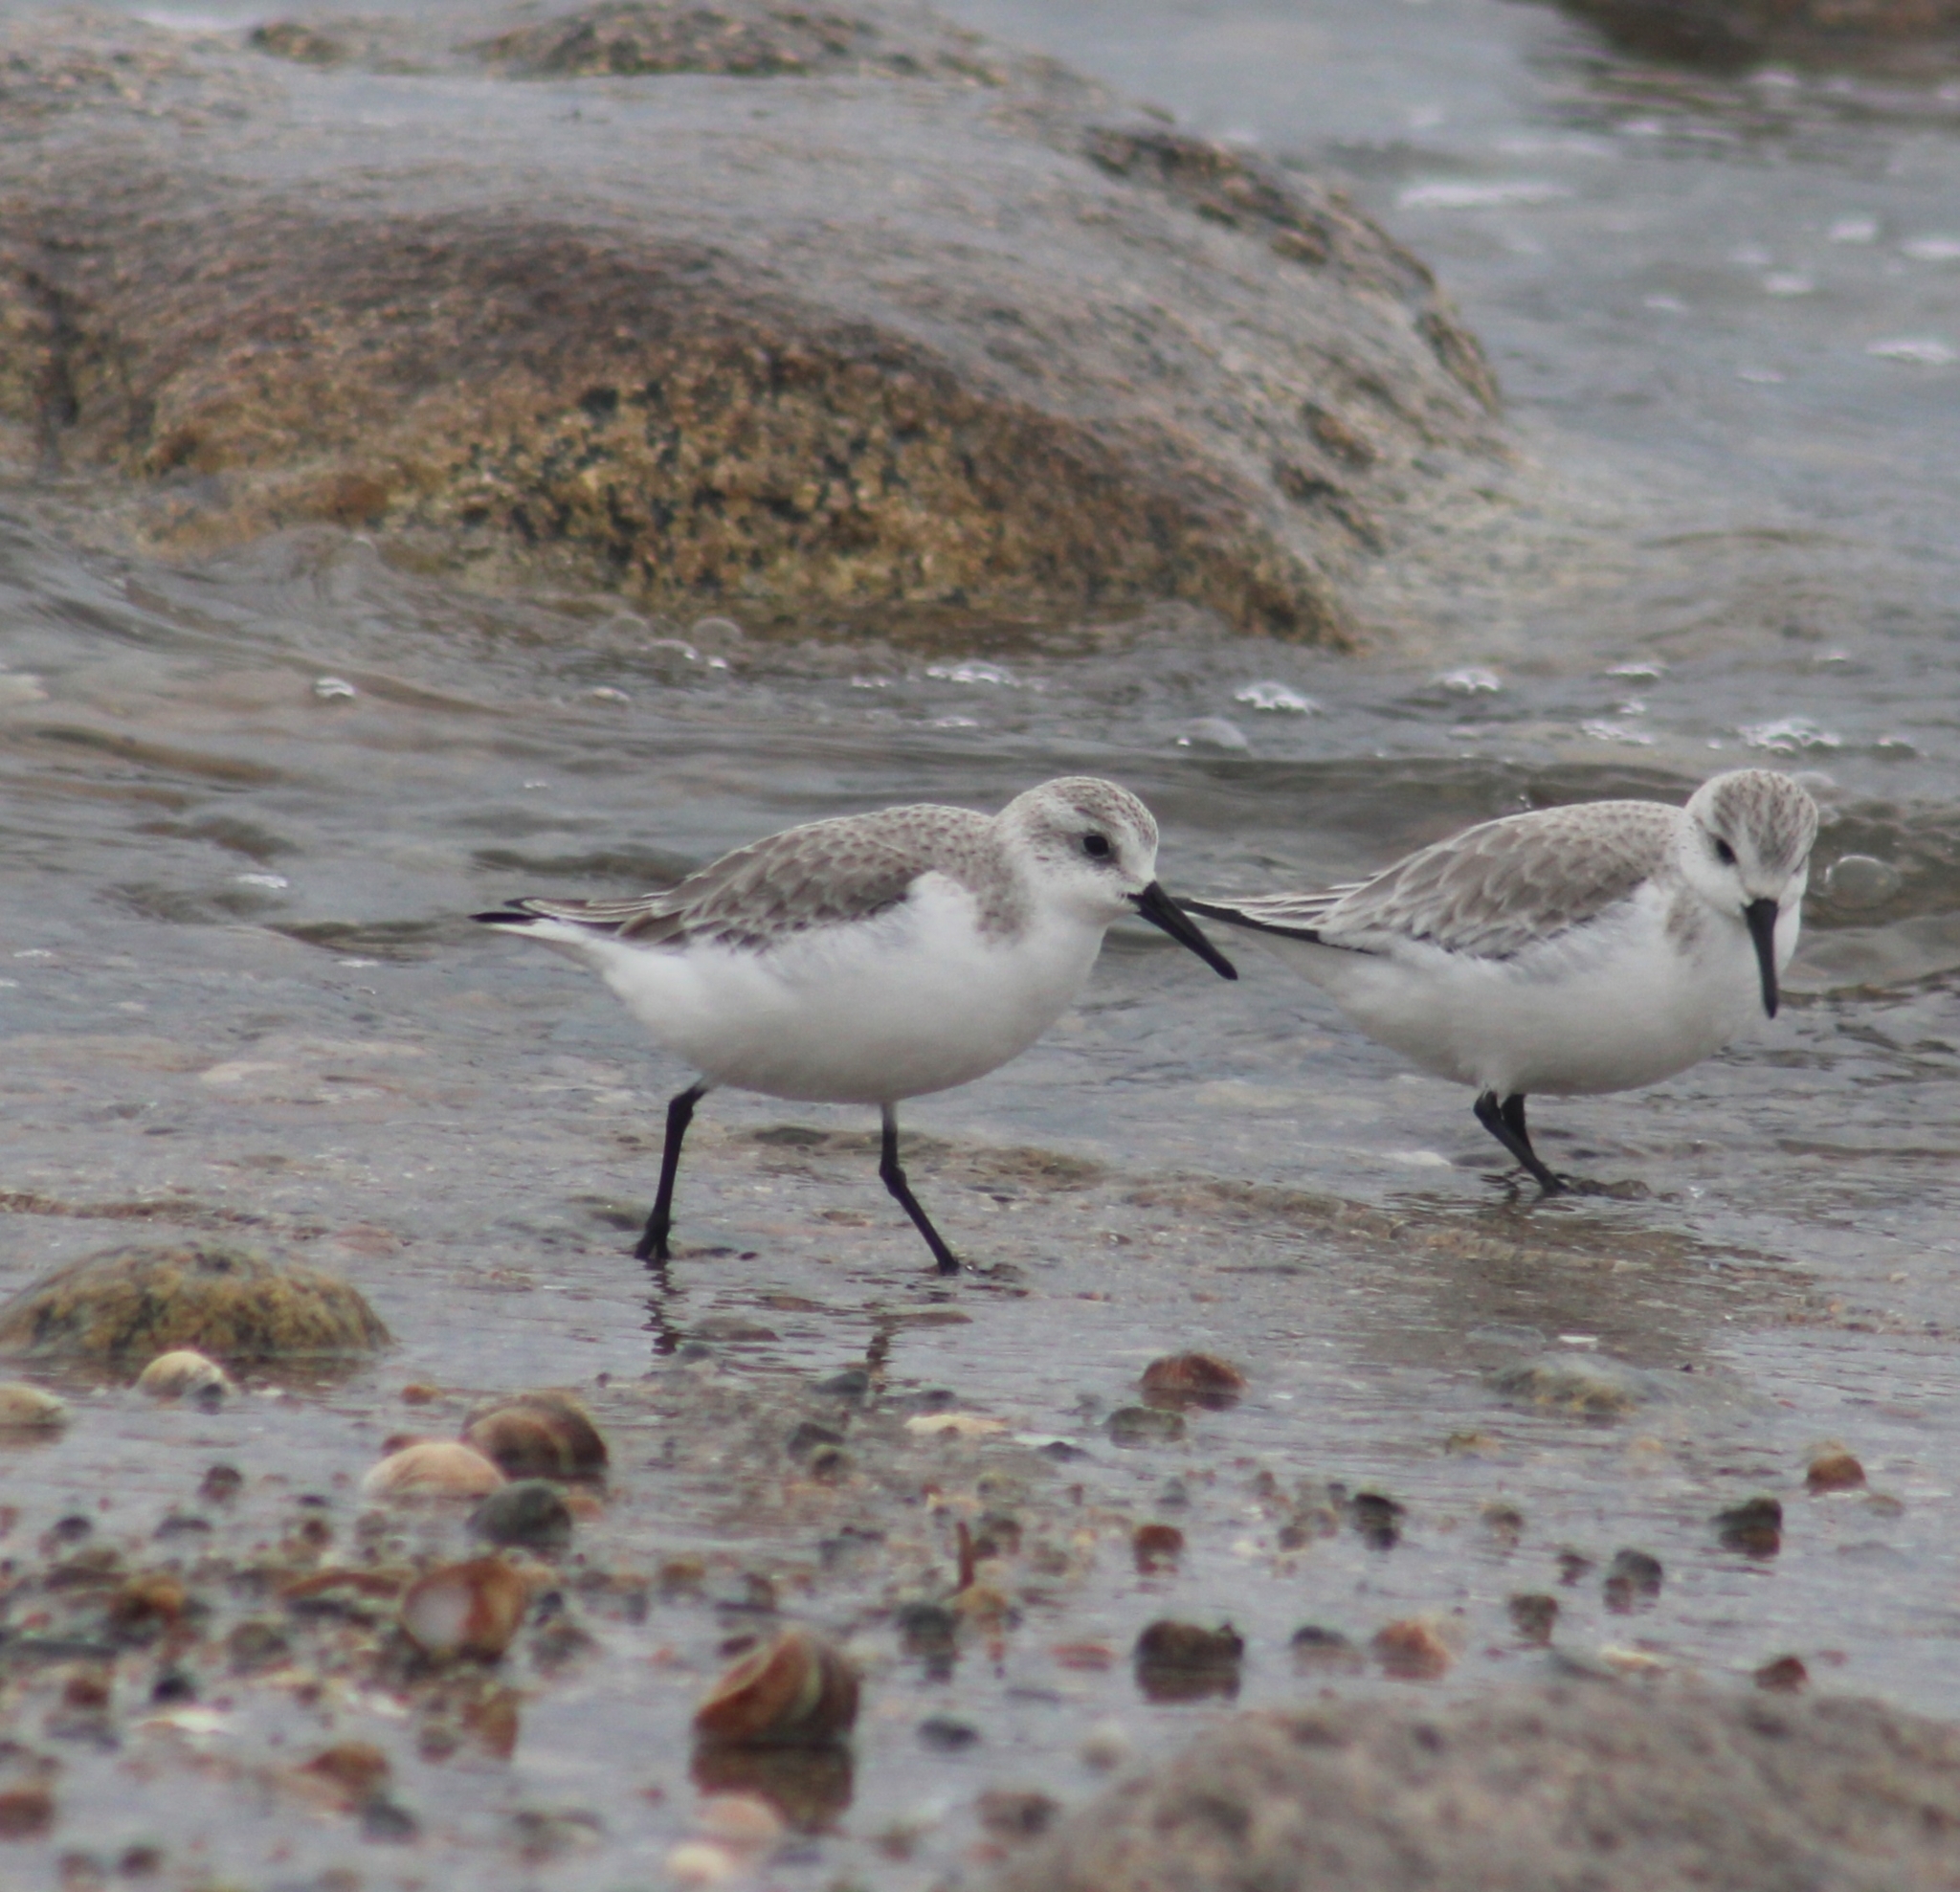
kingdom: Animalia
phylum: Chordata
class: Aves
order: Charadriiformes
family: Scolopacidae
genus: Calidris
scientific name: Calidris alba
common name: Sanderling
